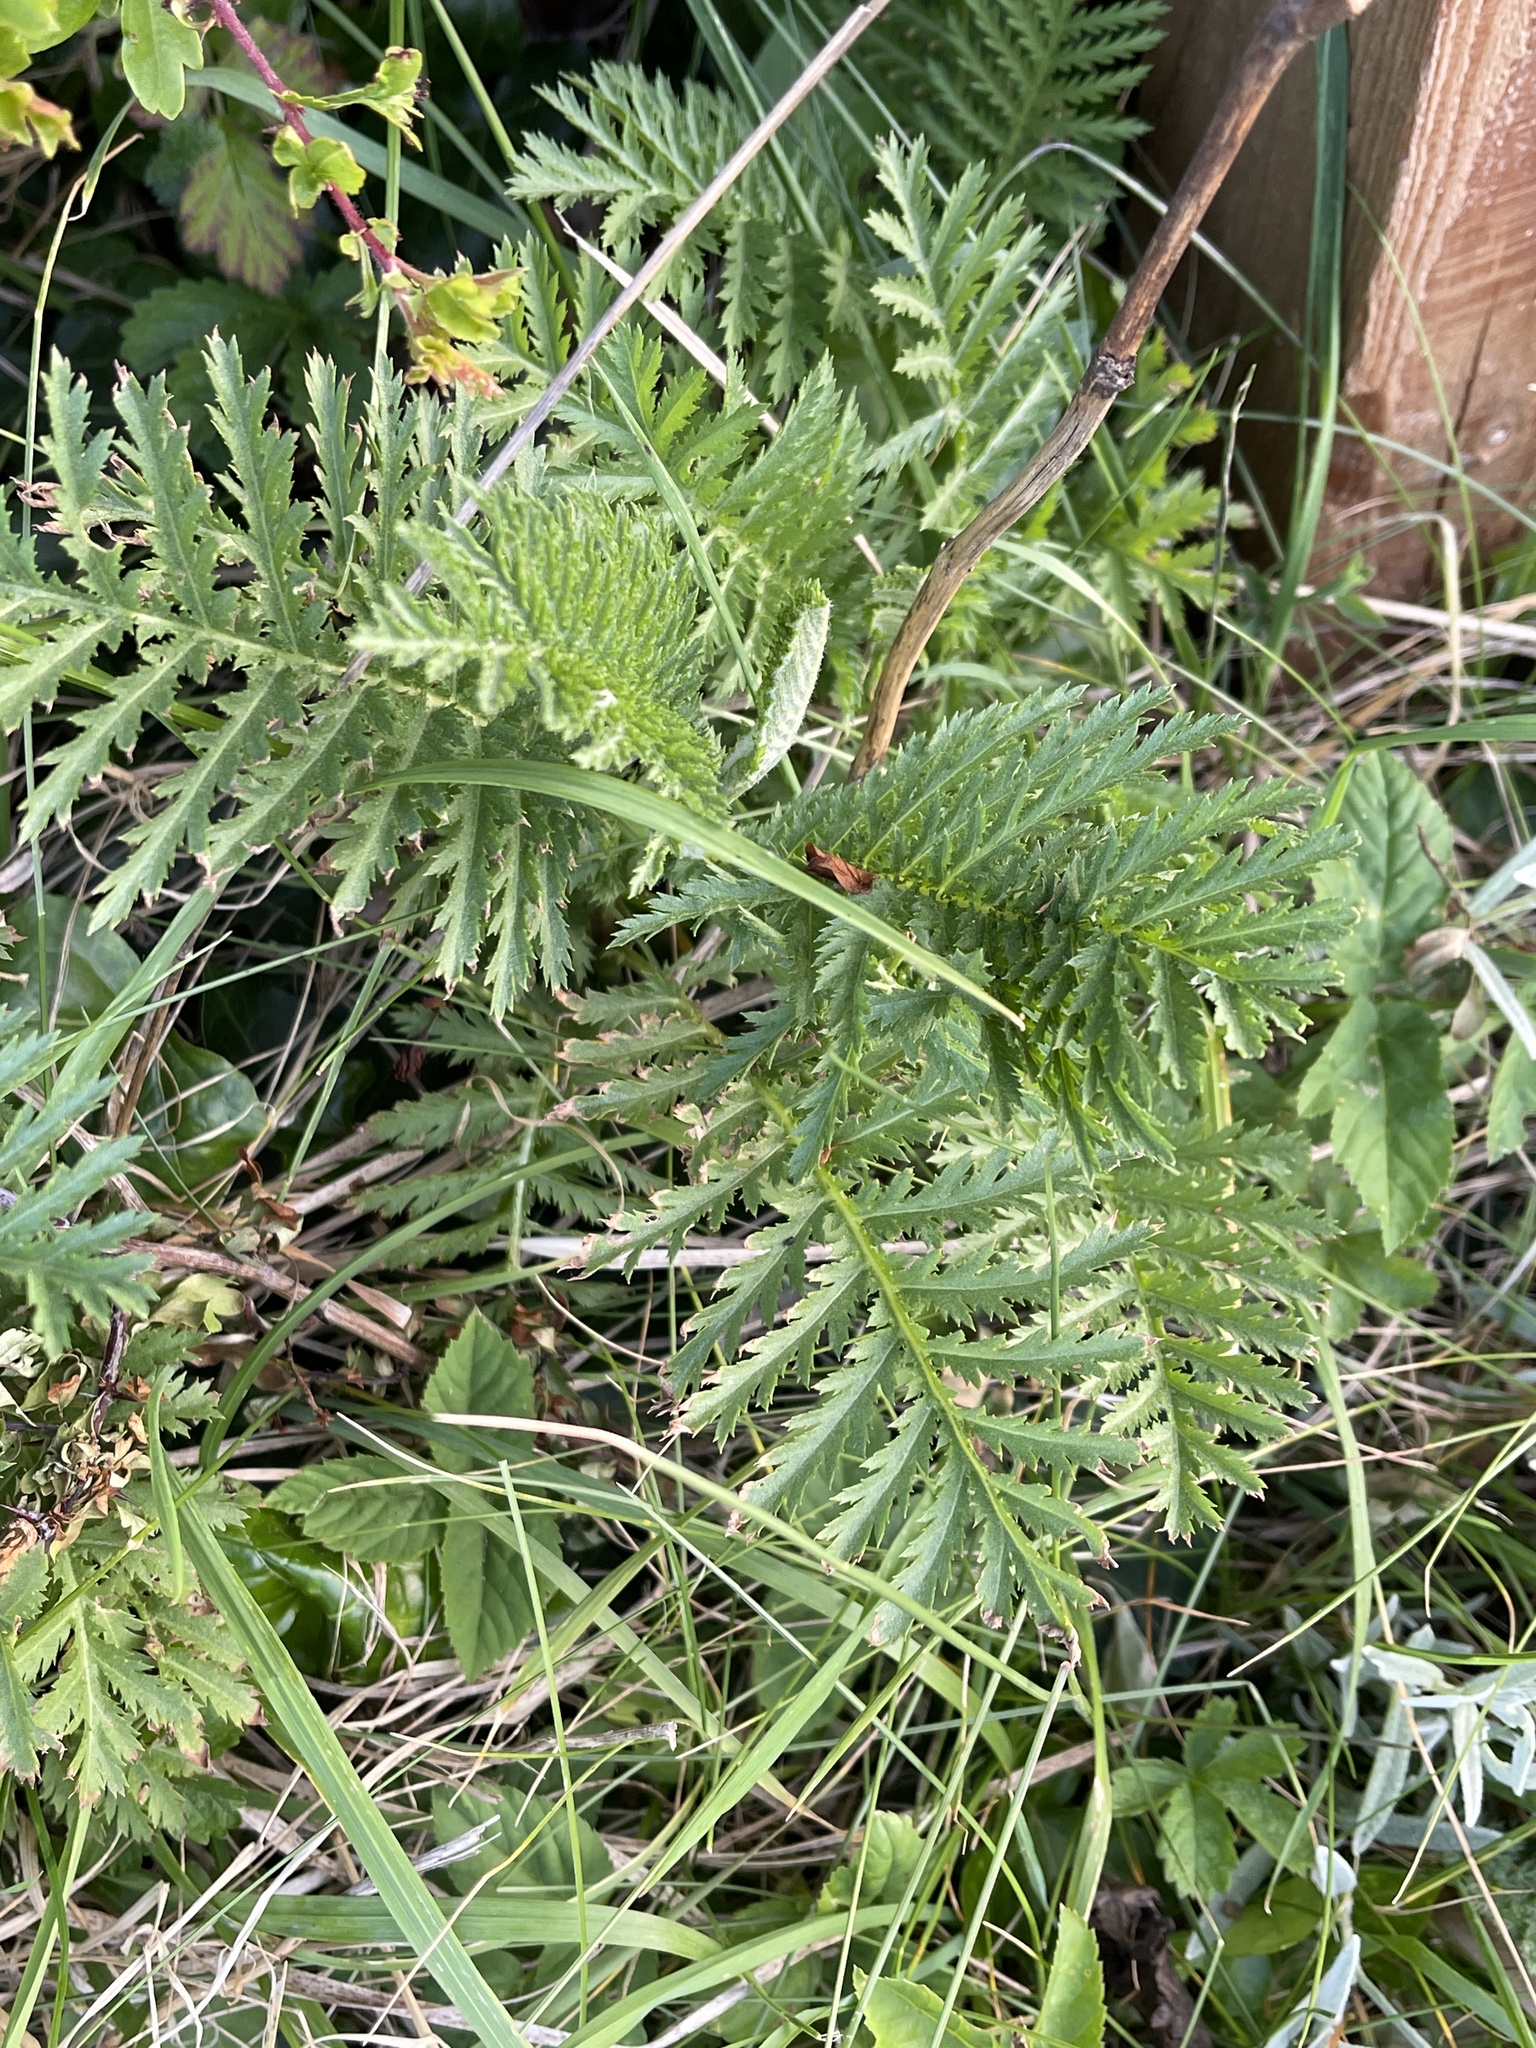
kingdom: Plantae
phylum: Tracheophyta
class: Magnoliopsida
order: Asterales
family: Asteraceae
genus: Tanacetum
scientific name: Tanacetum vulgare
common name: Common tansy
